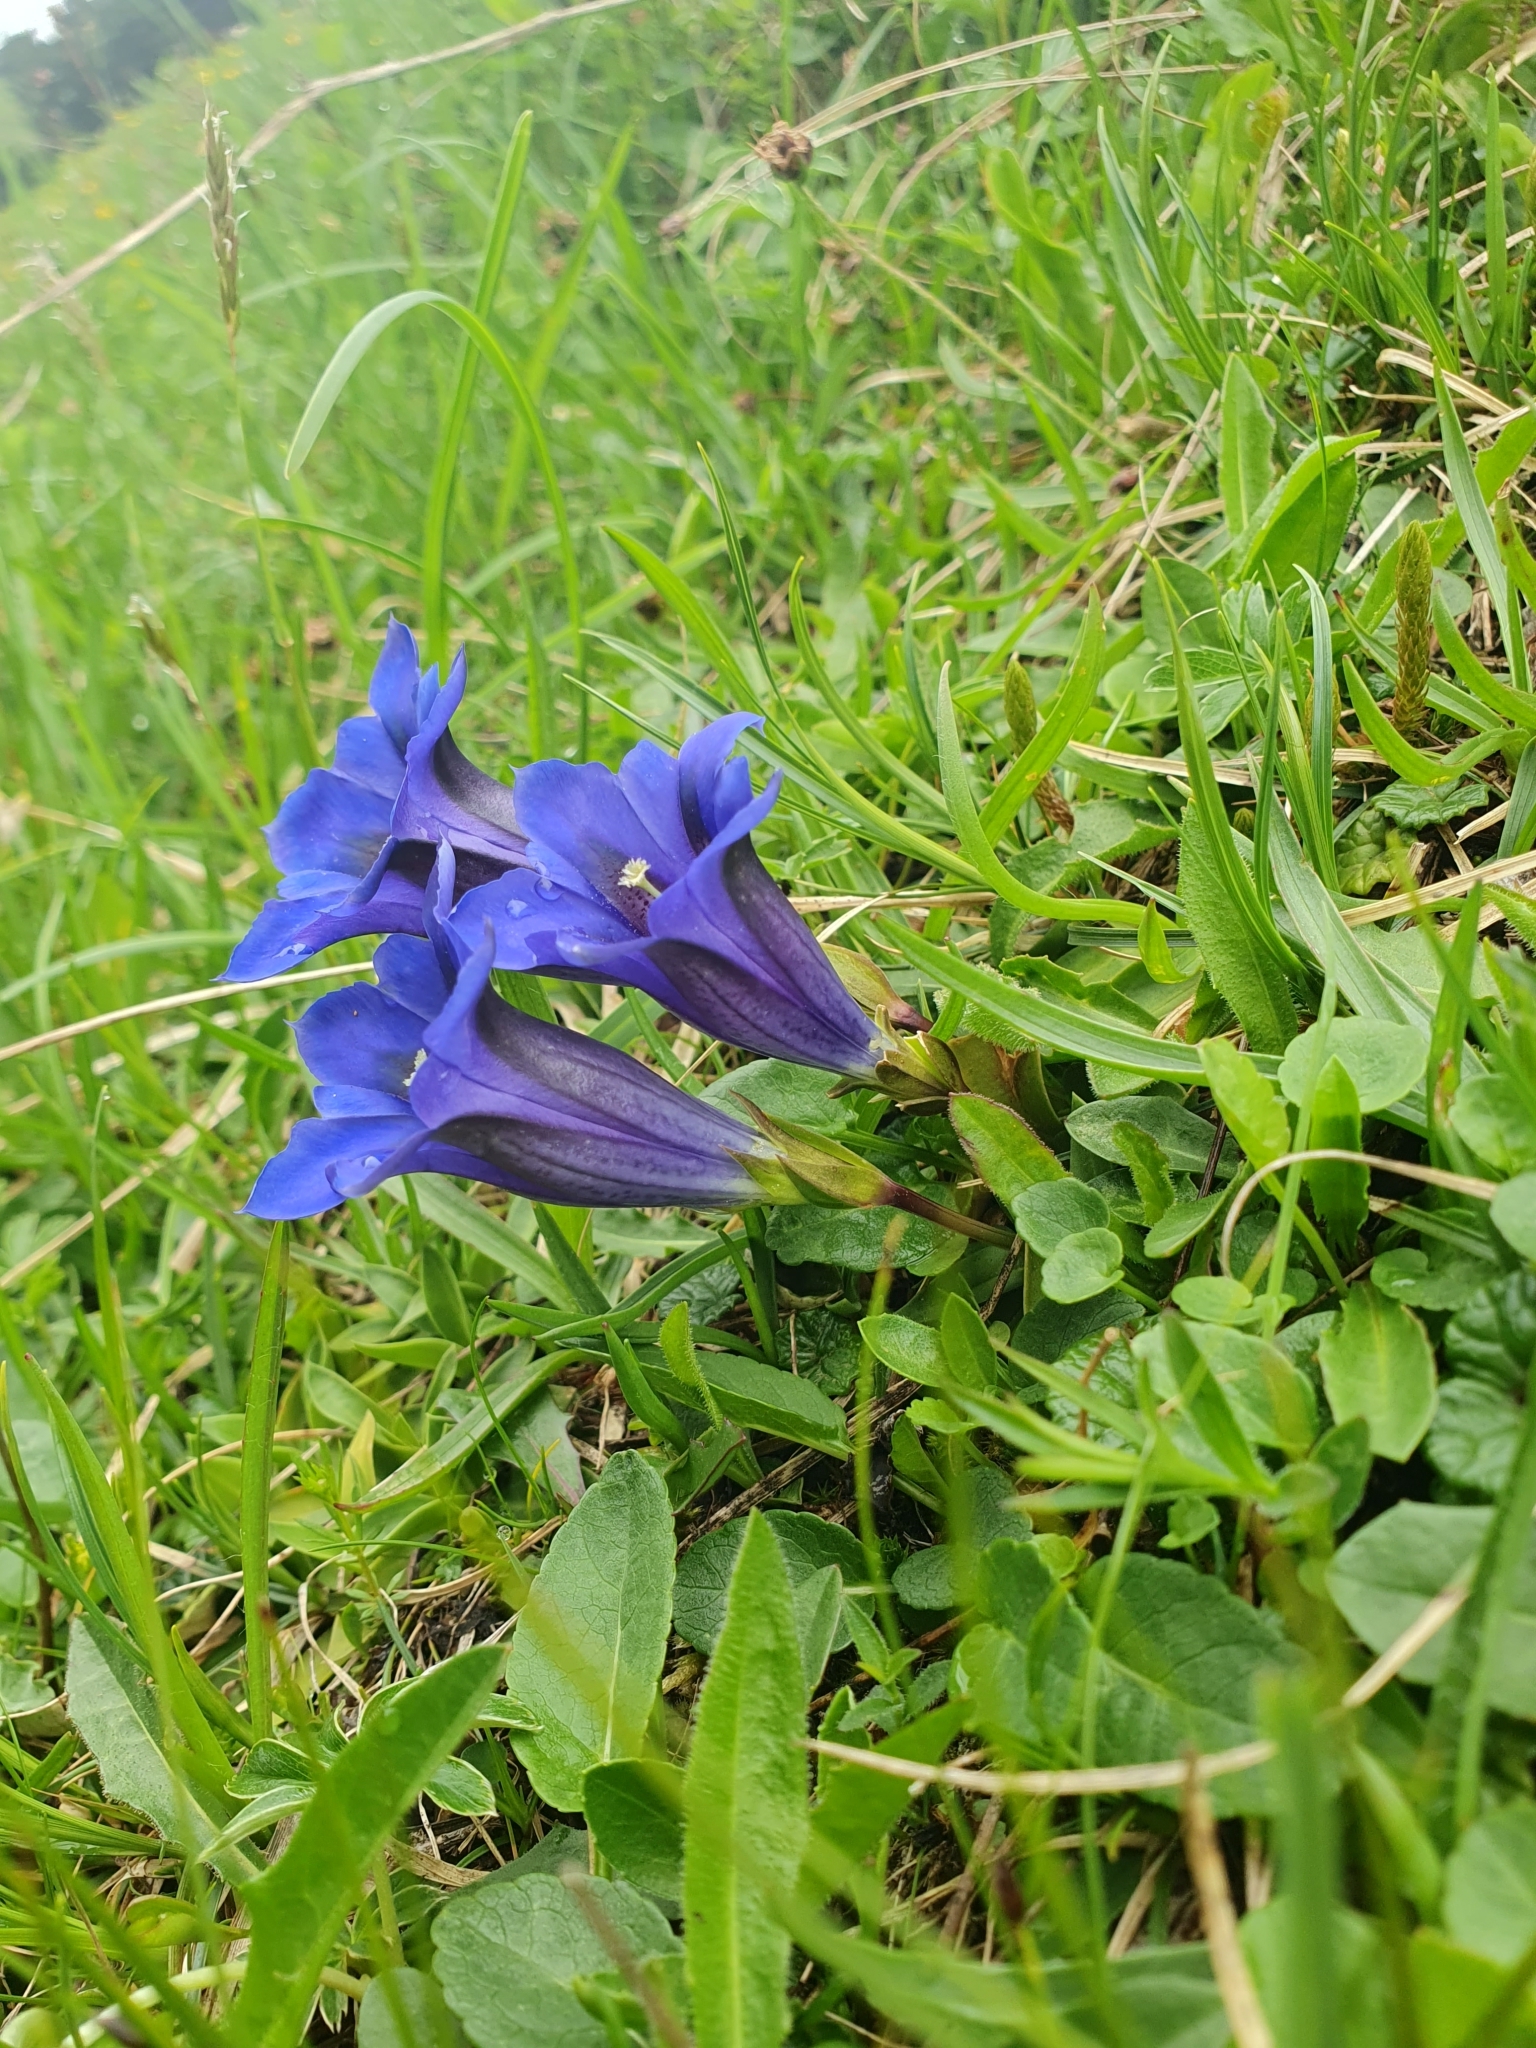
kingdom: Plantae
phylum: Tracheophyta
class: Magnoliopsida
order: Gentianales
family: Gentianaceae
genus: Gentiana
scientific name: Gentiana clusii
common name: Trumpet gentian
